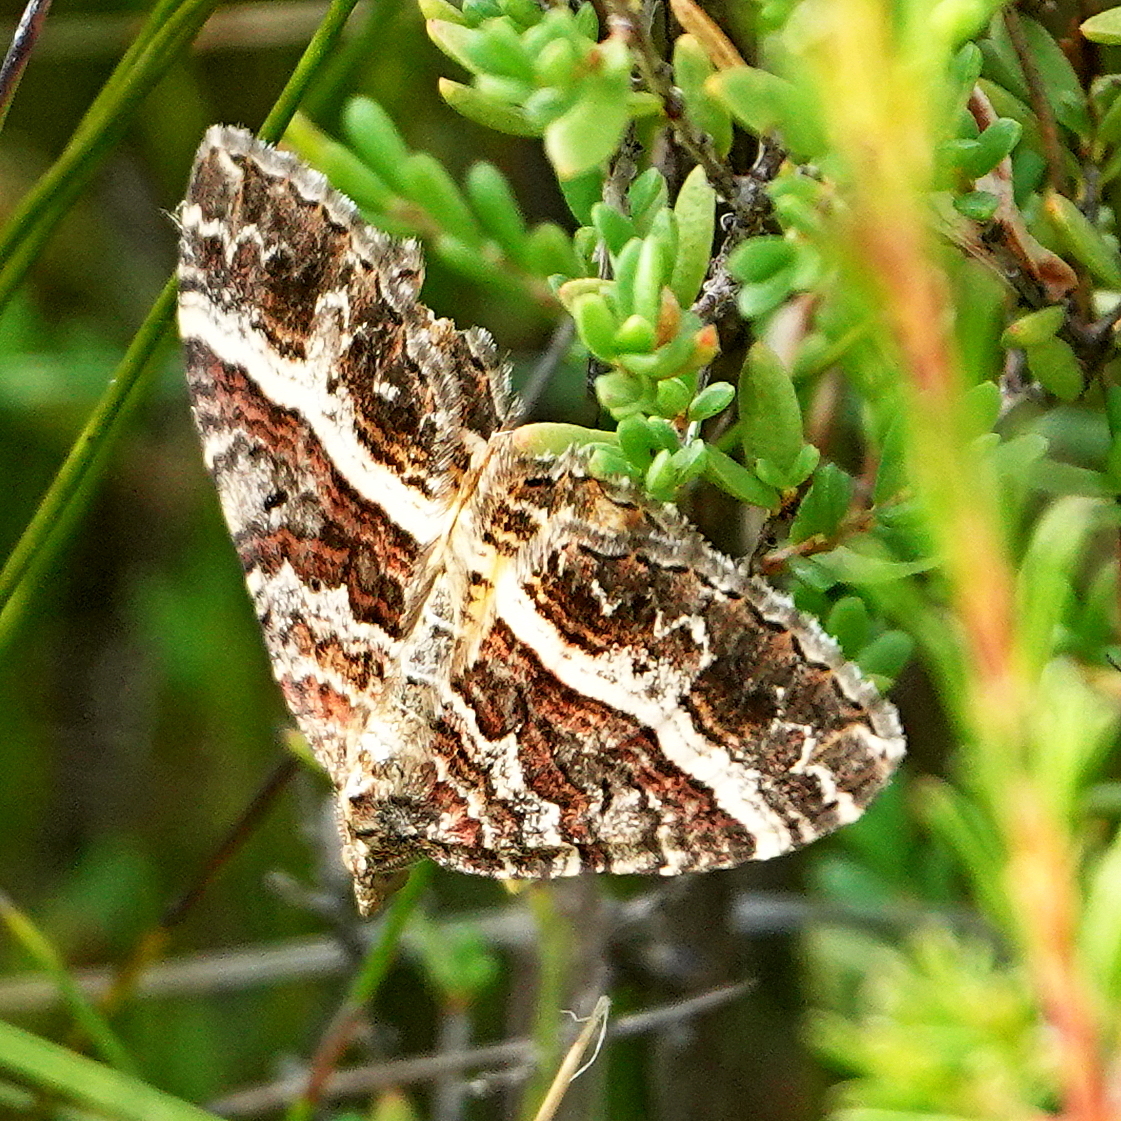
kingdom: Animalia
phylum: Arthropoda
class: Insecta
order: Lepidoptera
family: Geometridae
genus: Chrysolarentia
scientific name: Chrysolarentia vicissata
